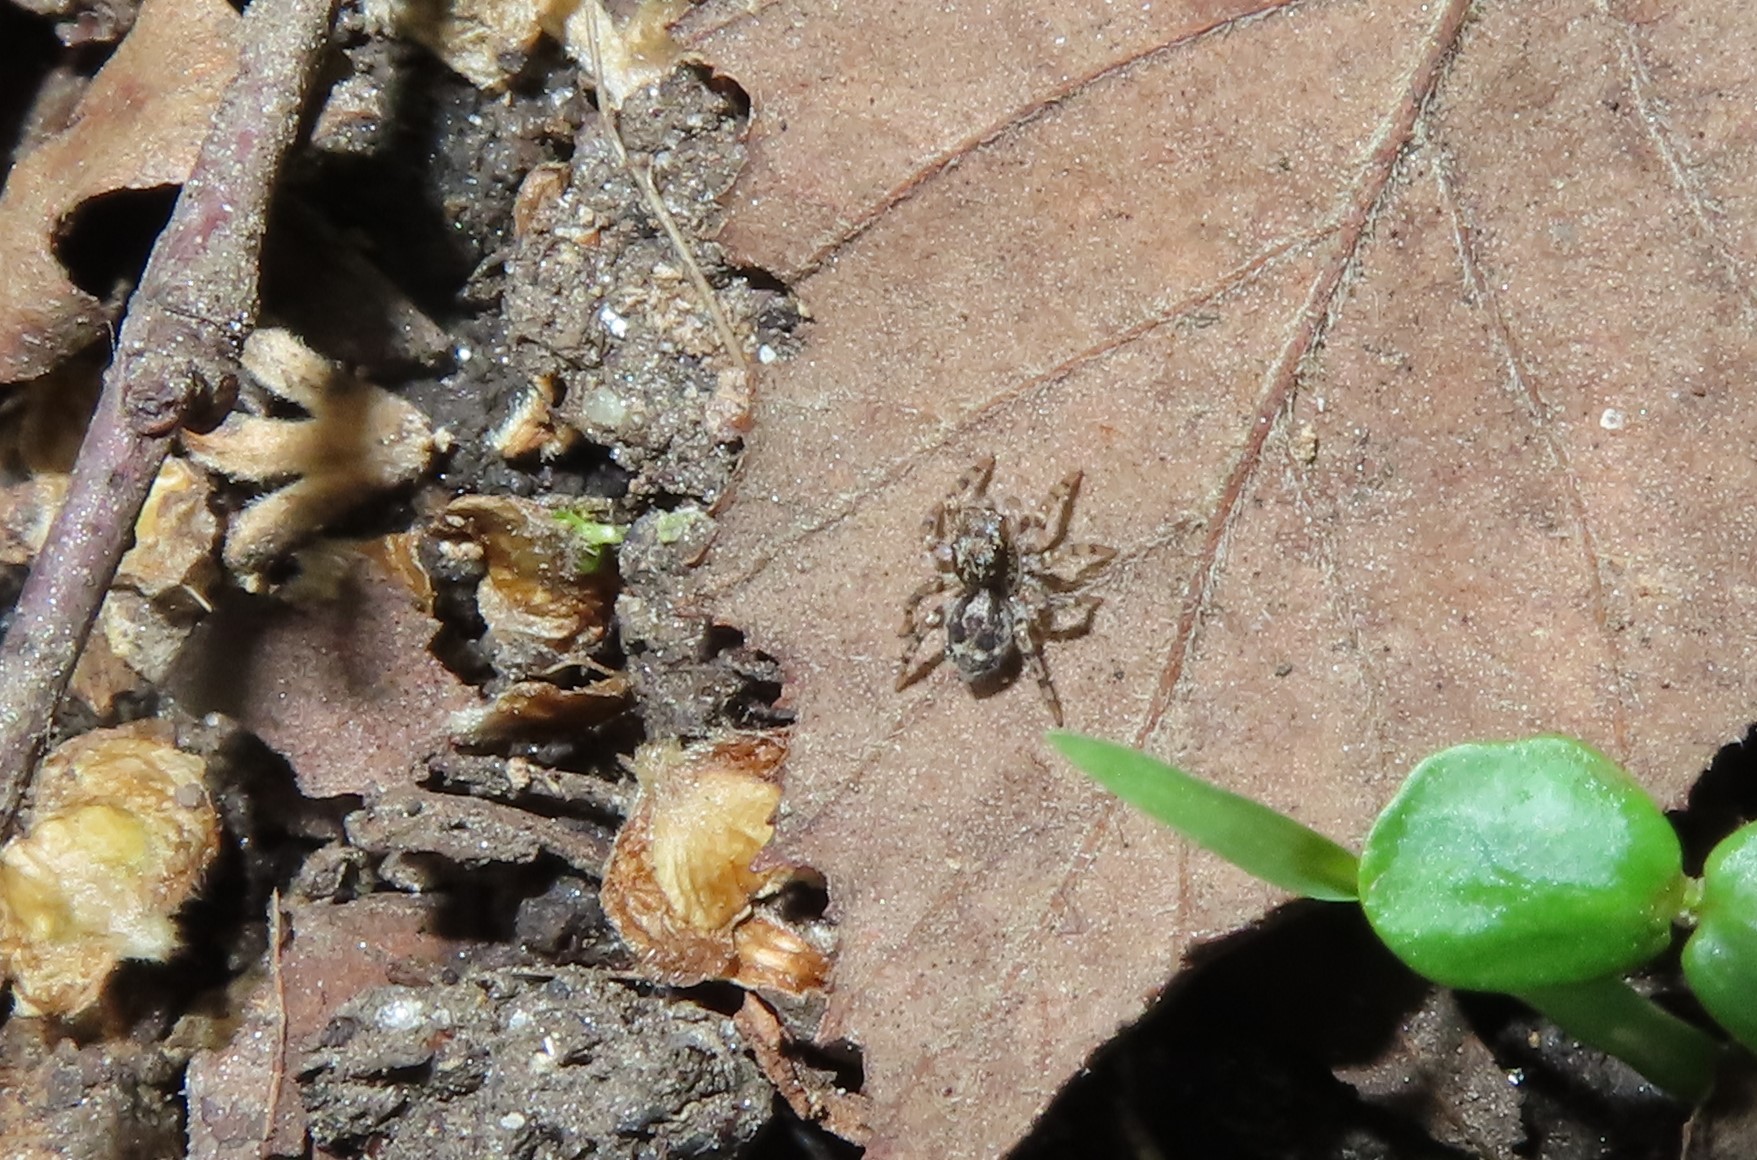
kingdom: Animalia
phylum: Arthropoda
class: Arachnida
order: Araneae
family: Salticidae
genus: Naphrys
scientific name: Naphrys pulex
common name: Flea jumping spider
